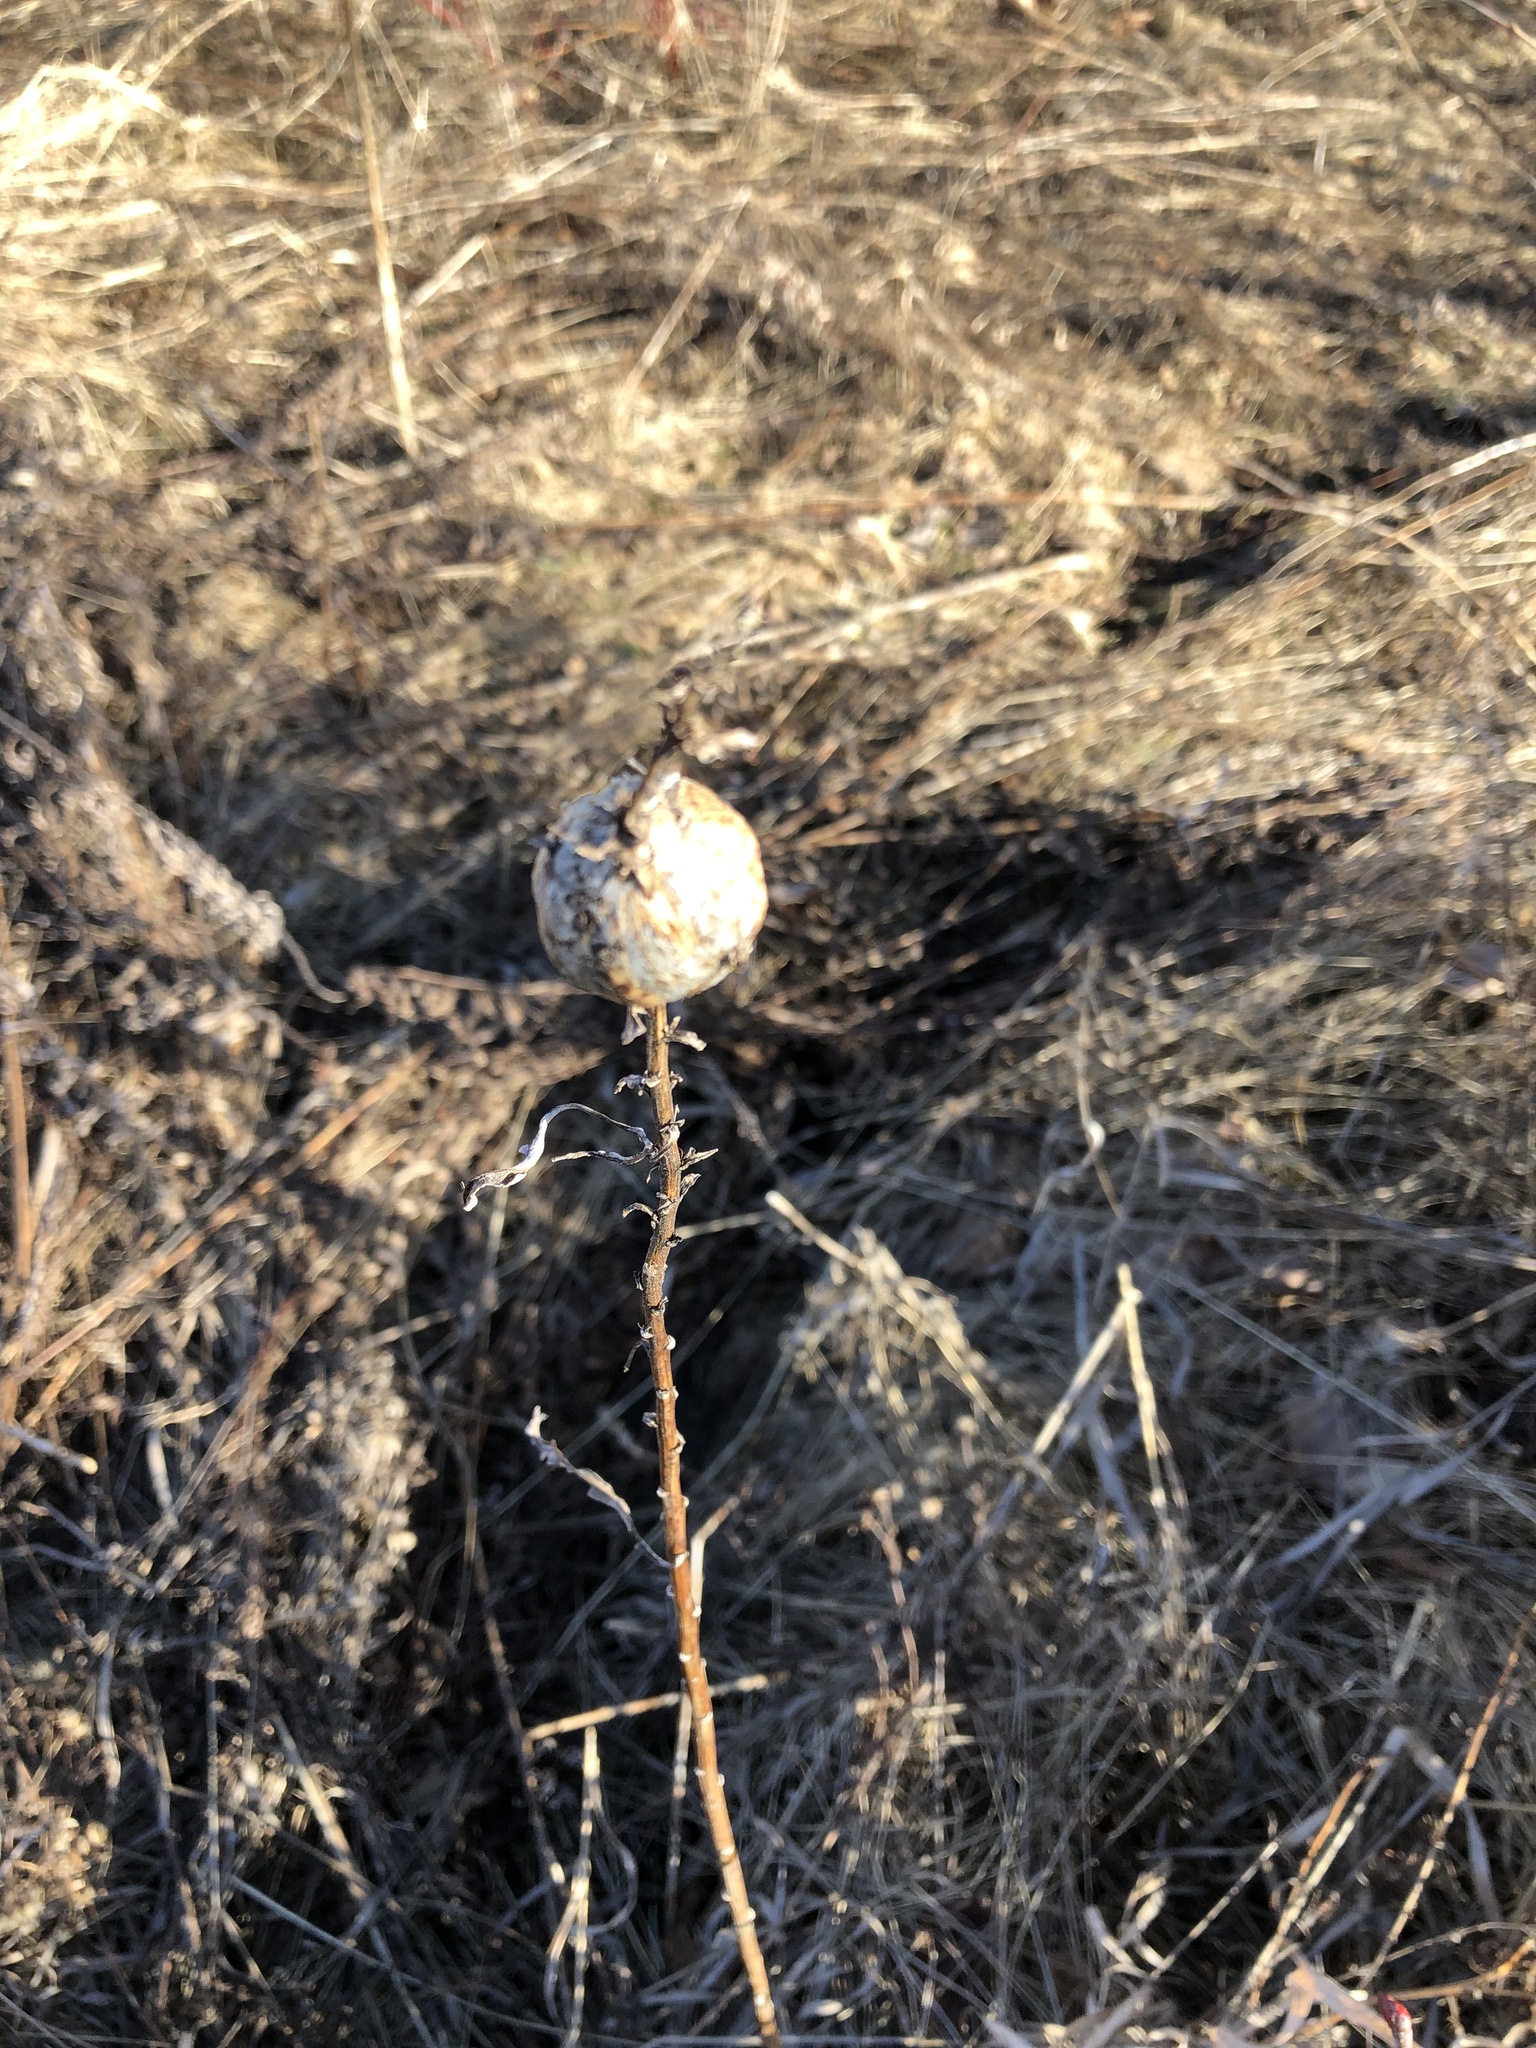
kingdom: Animalia
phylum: Arthropoda
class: Insecta
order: Diptera
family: Tephritidae
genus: Eurosta
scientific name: Eurosta solidaginis
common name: Goldenrod gall fly
